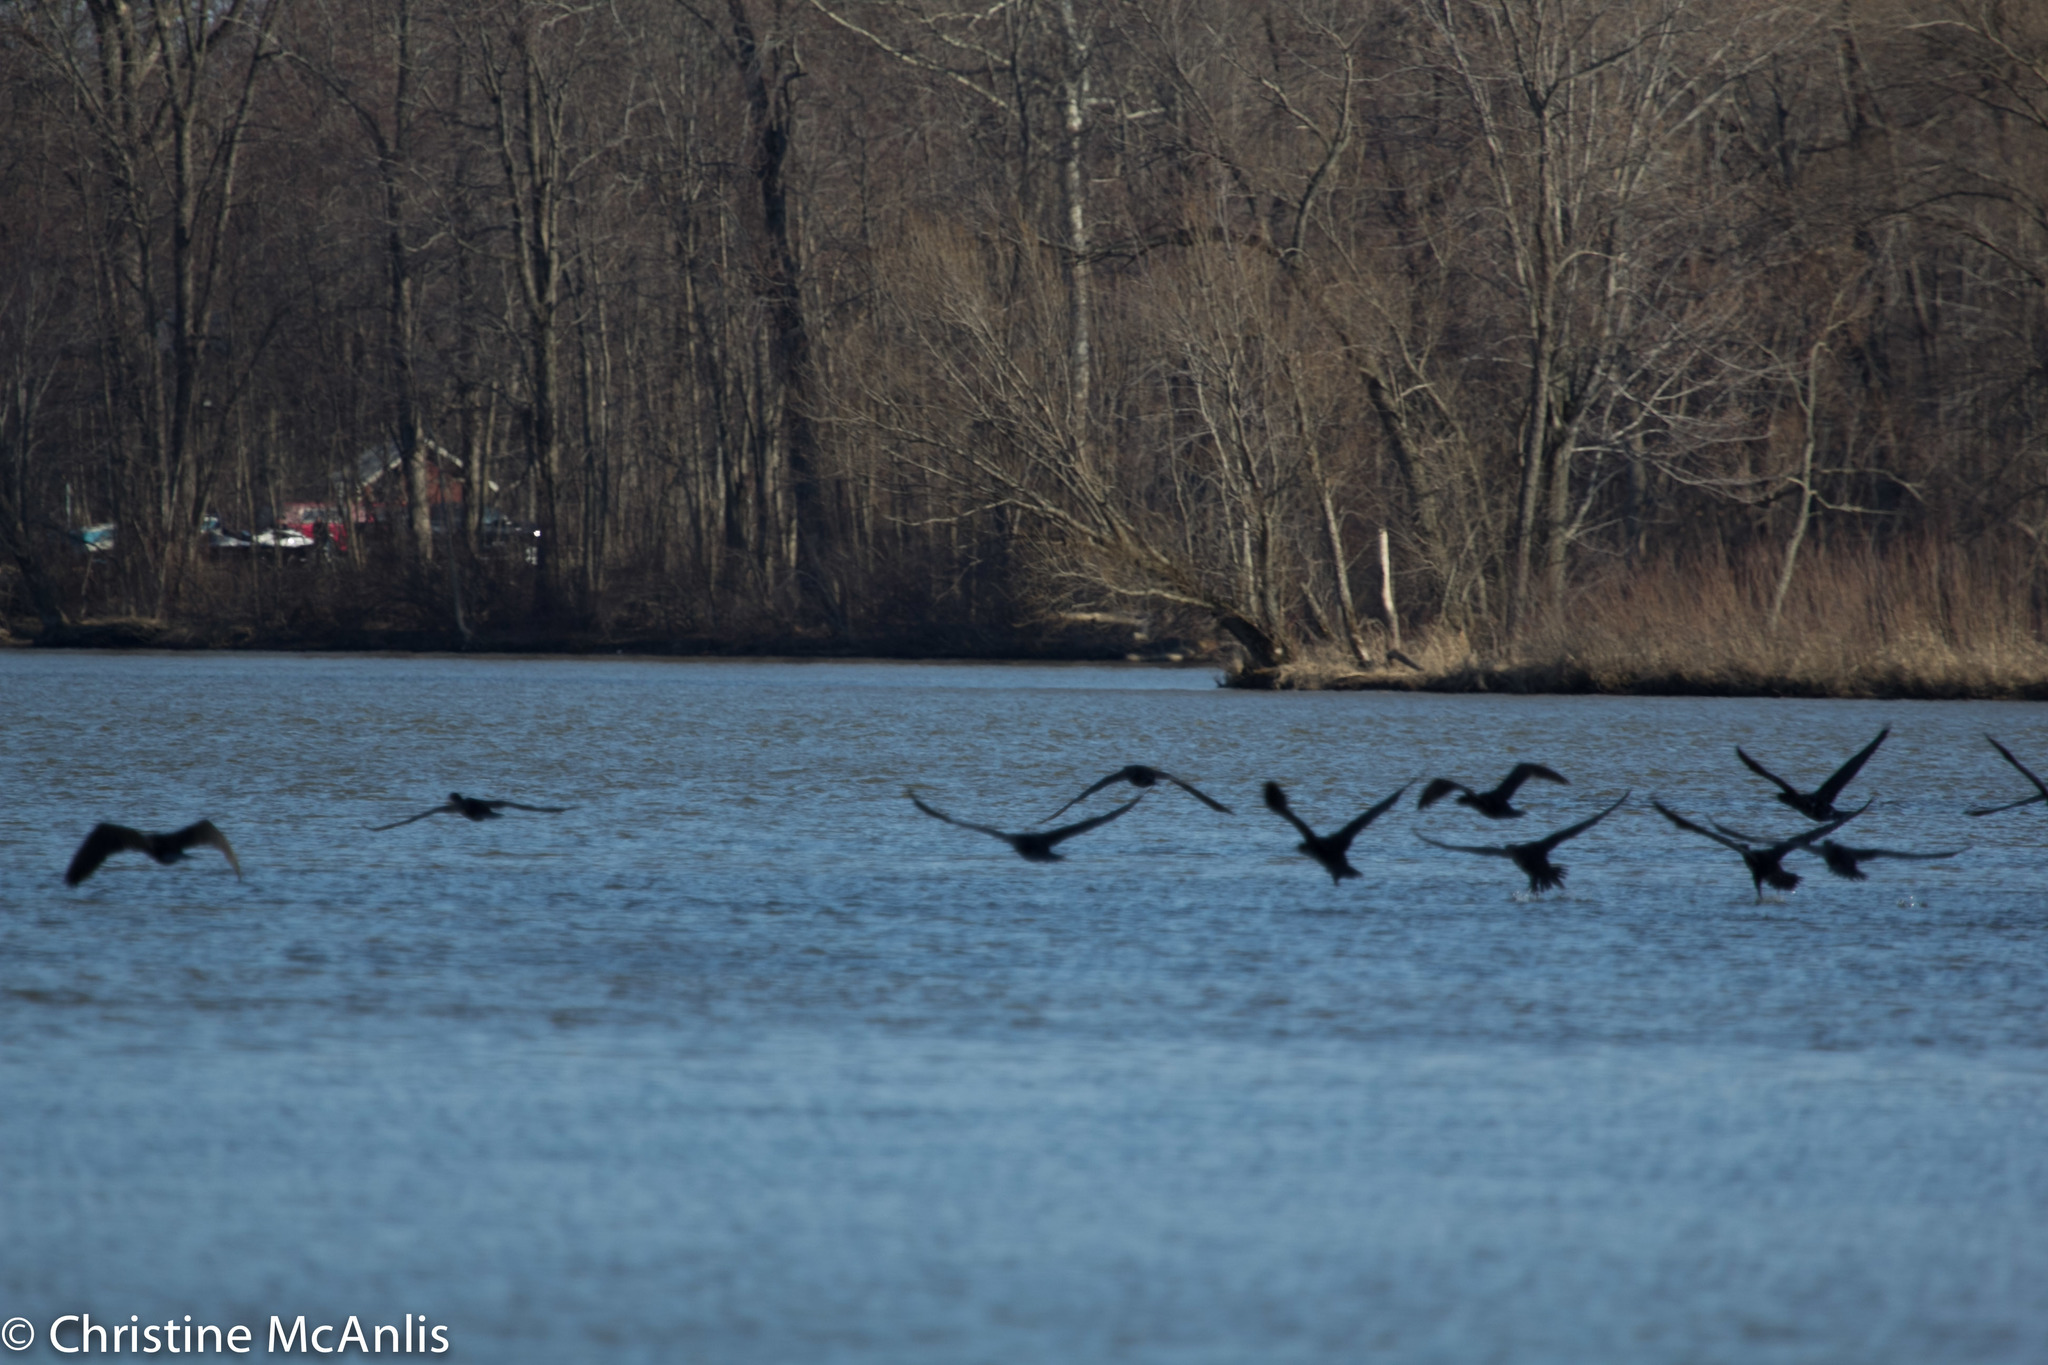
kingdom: Animalia
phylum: Chordata
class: Aves
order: Suliformes
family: Phalacrocoracidae
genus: Phalacrocorax
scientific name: Phalacrocorax auritus
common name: Double-crested cormorant
